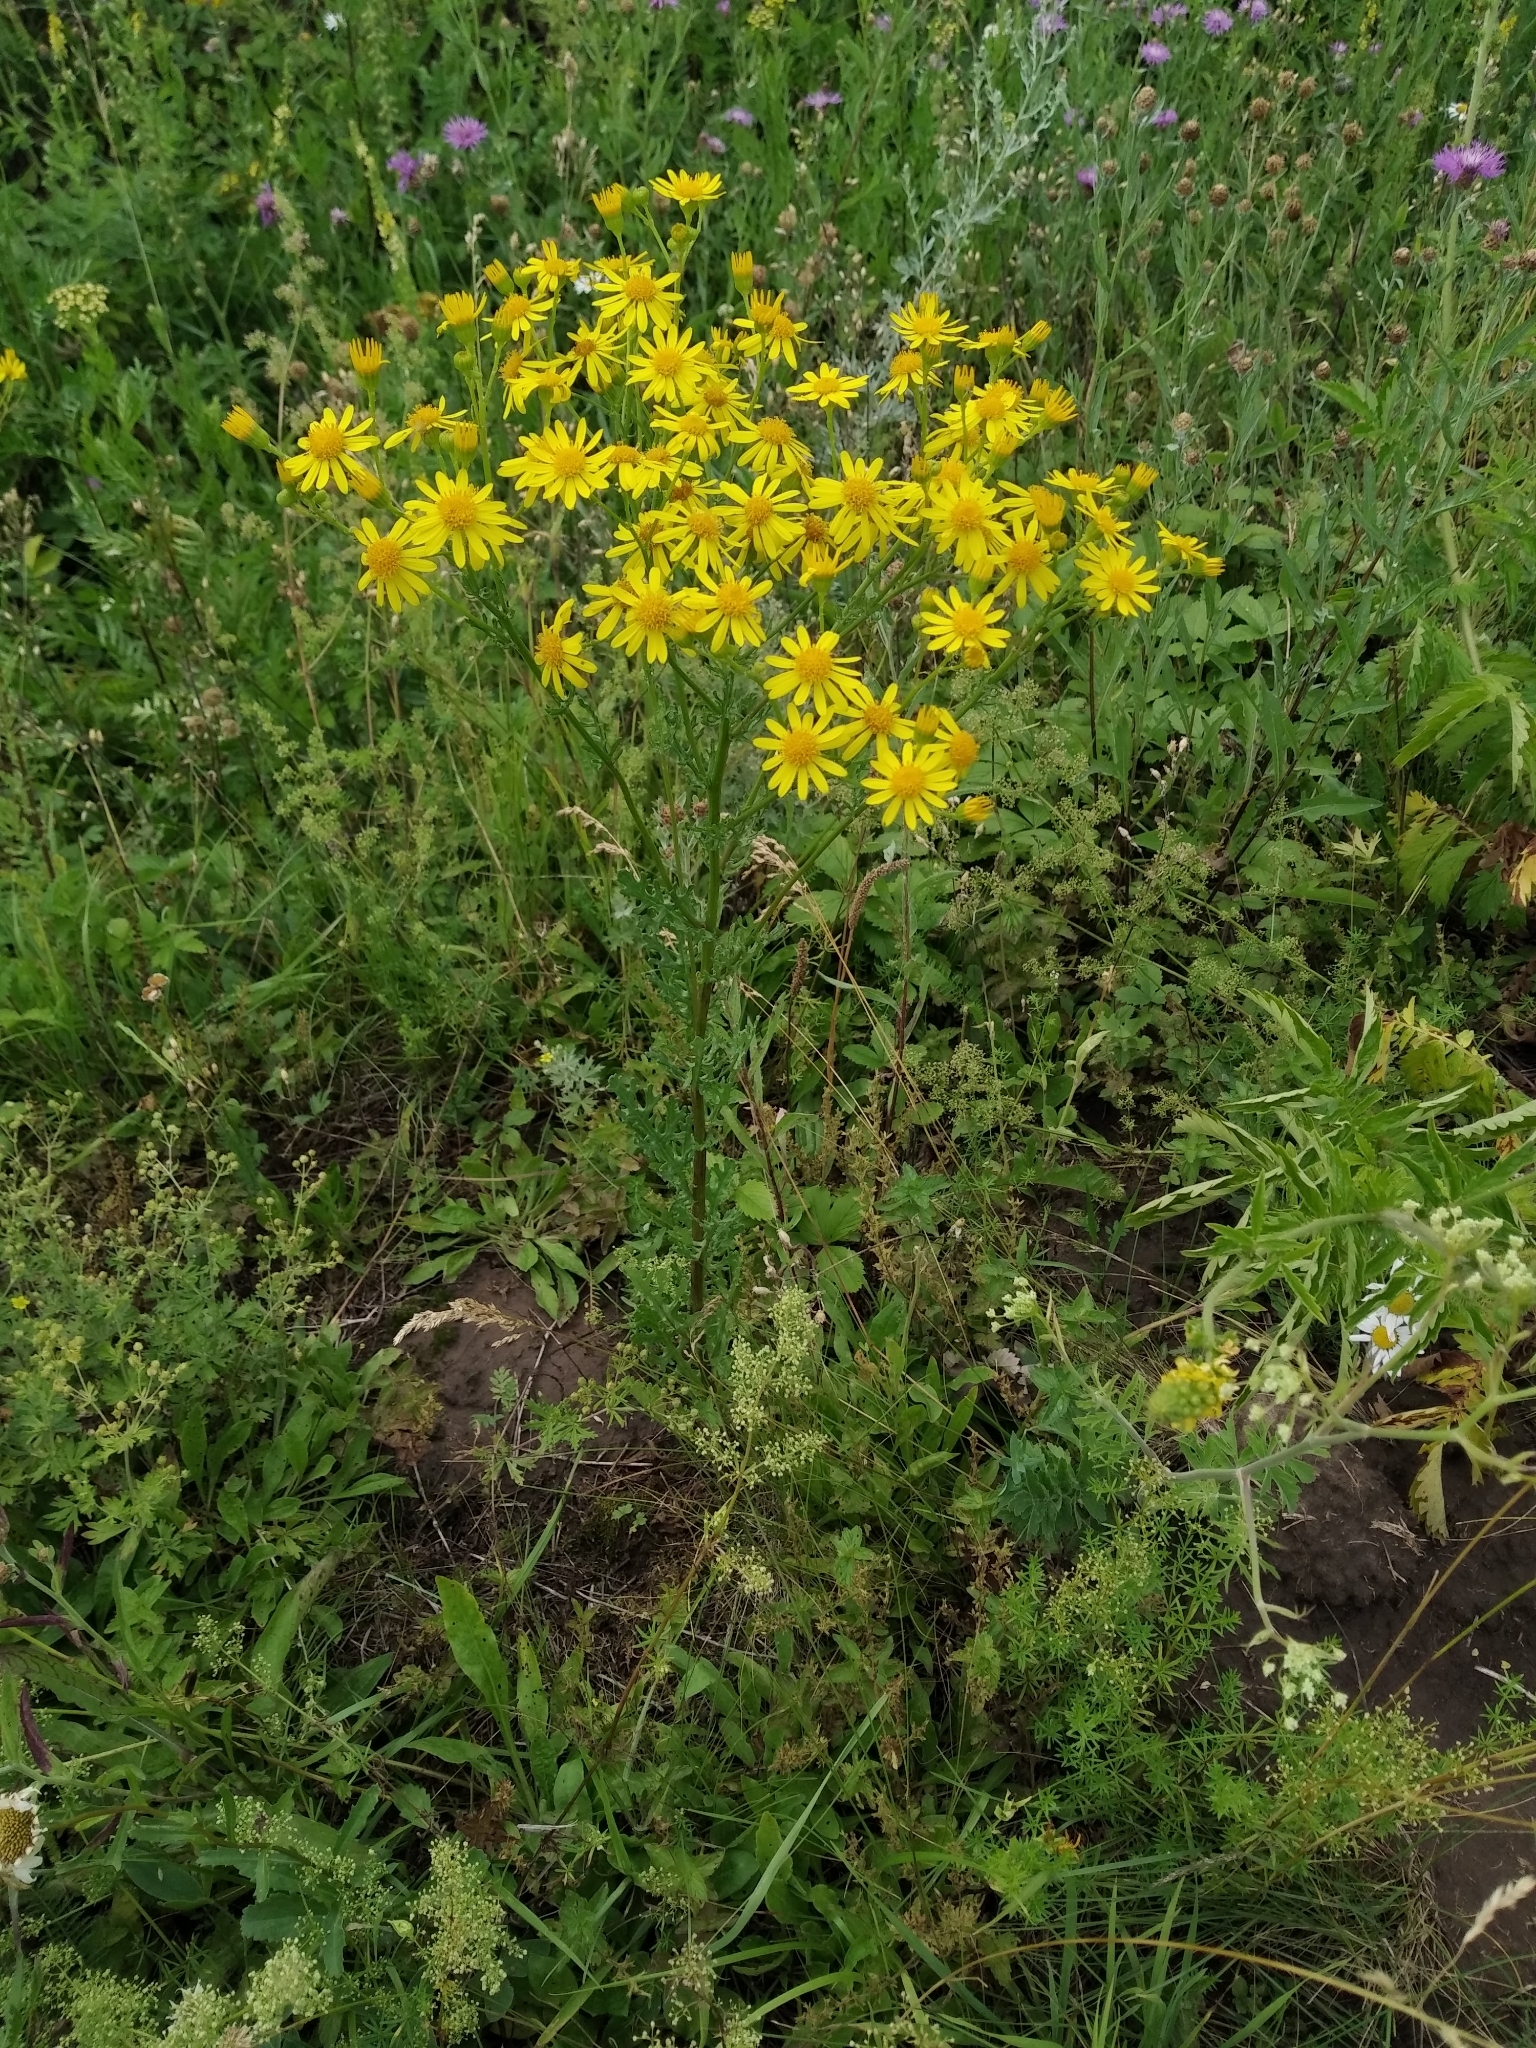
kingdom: Plantae
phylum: Tracheophyta
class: Magnoliopsida
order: Asterales
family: Asteraceae
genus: Jacobaea
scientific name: Jacobaea vulgaris
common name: Stinking willie
